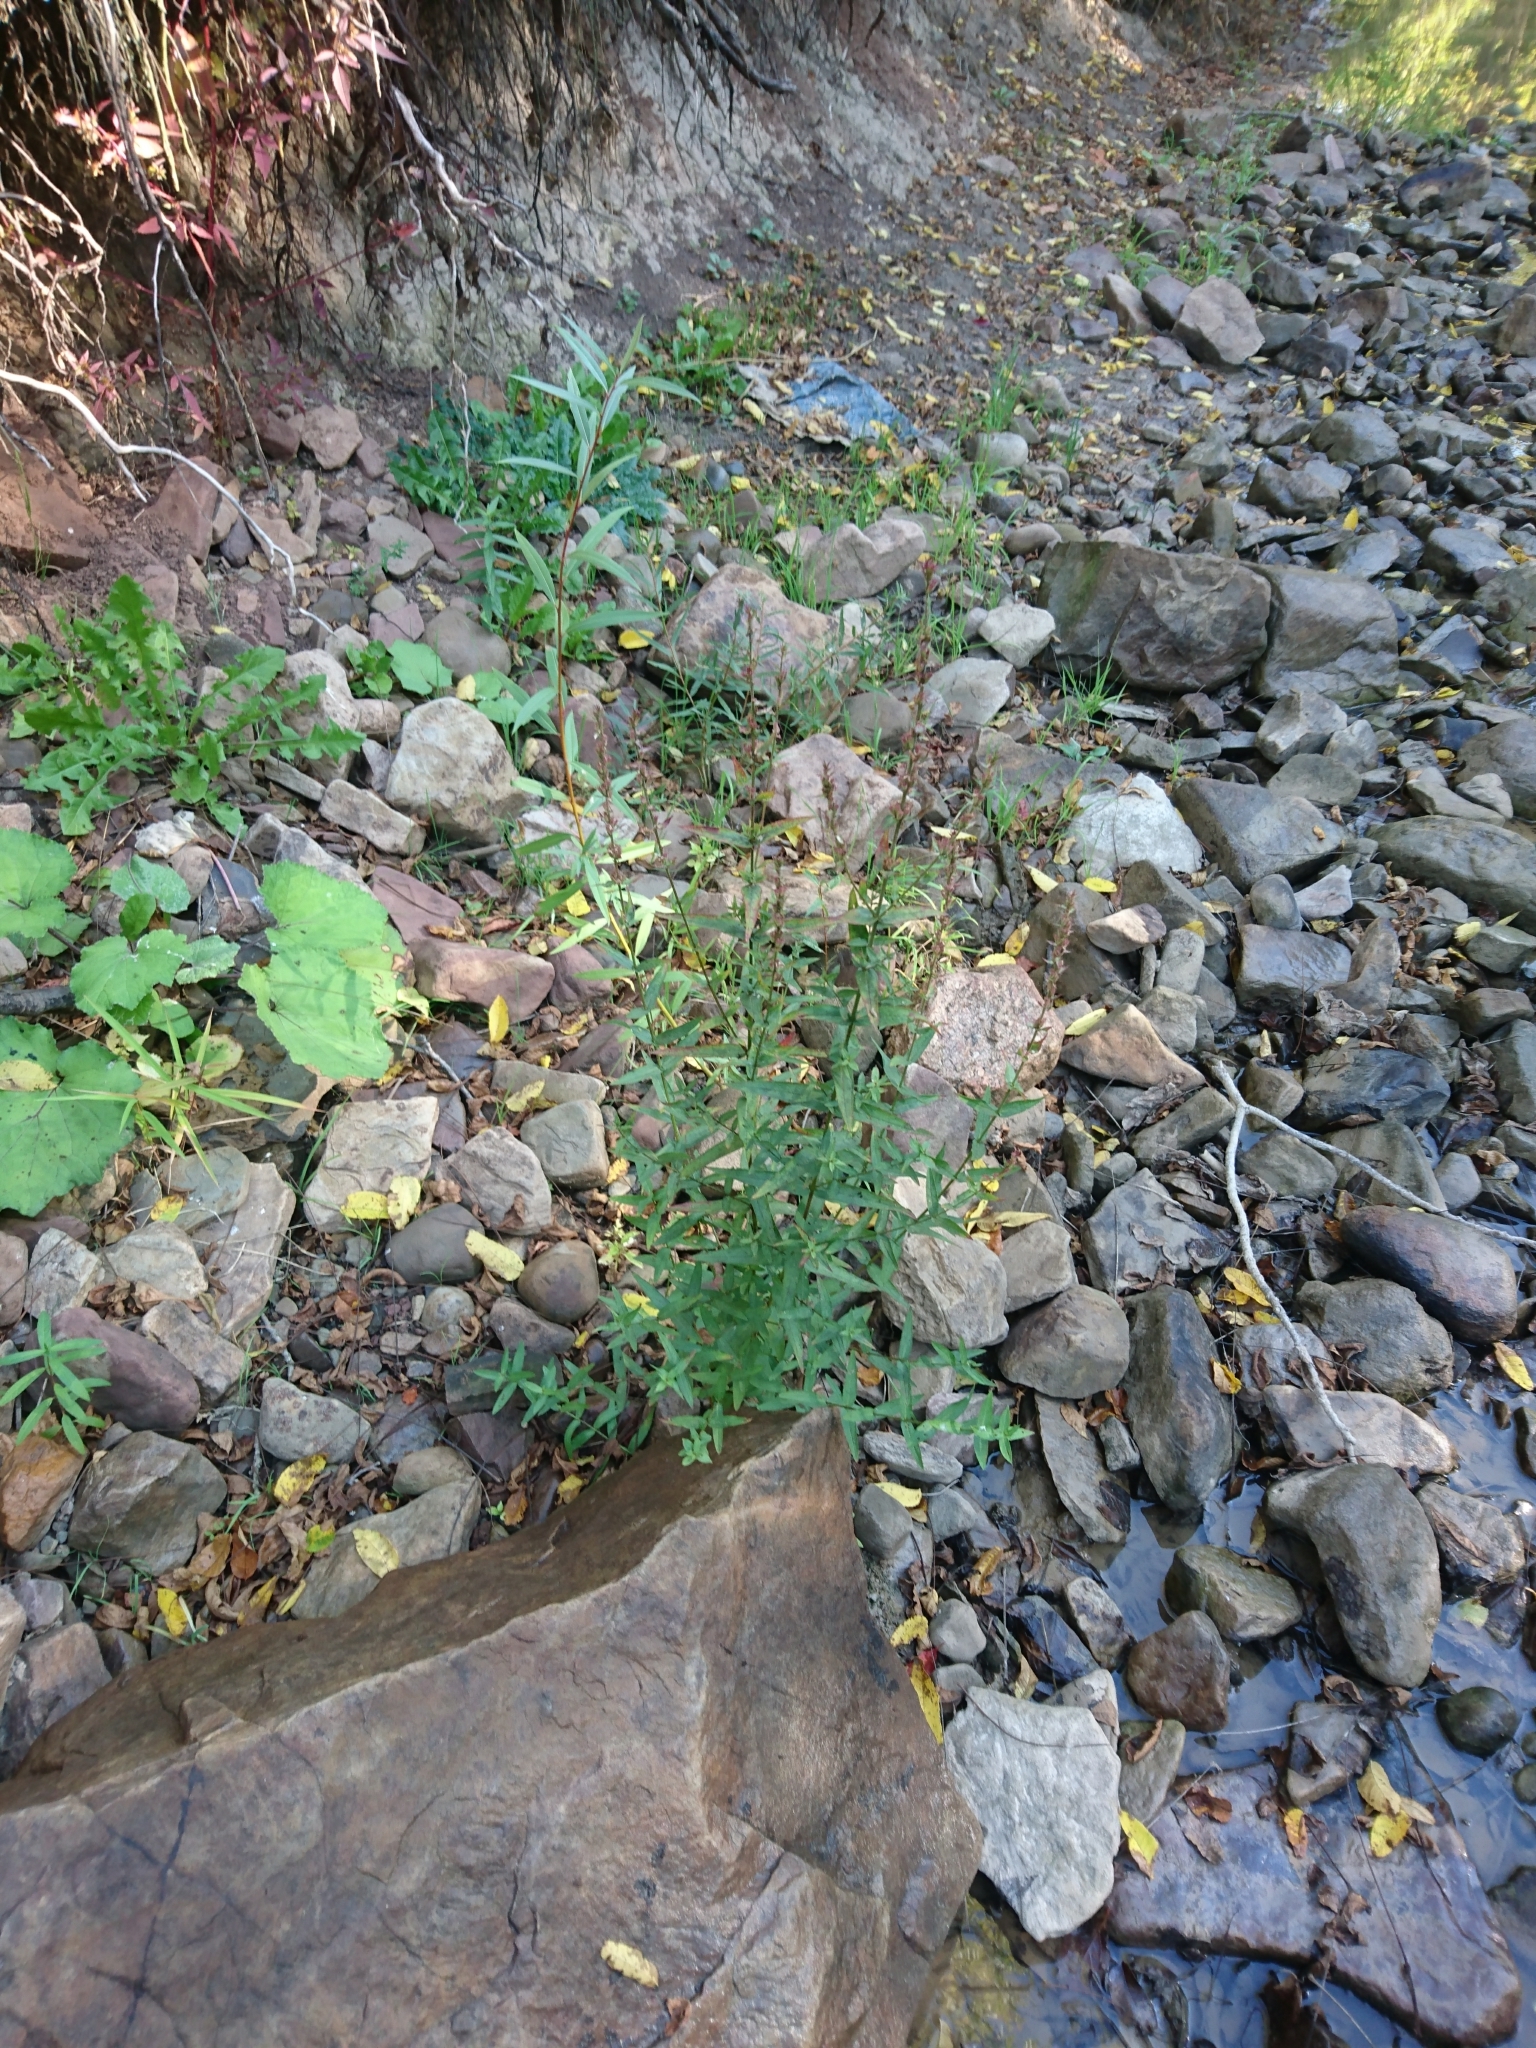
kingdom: Plantae
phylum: Tracheophyta
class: Magnoliopsida
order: Myrtales
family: Lythraceae
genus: Lythrum
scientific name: Lythrum salicaria
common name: Purple loosestrife
